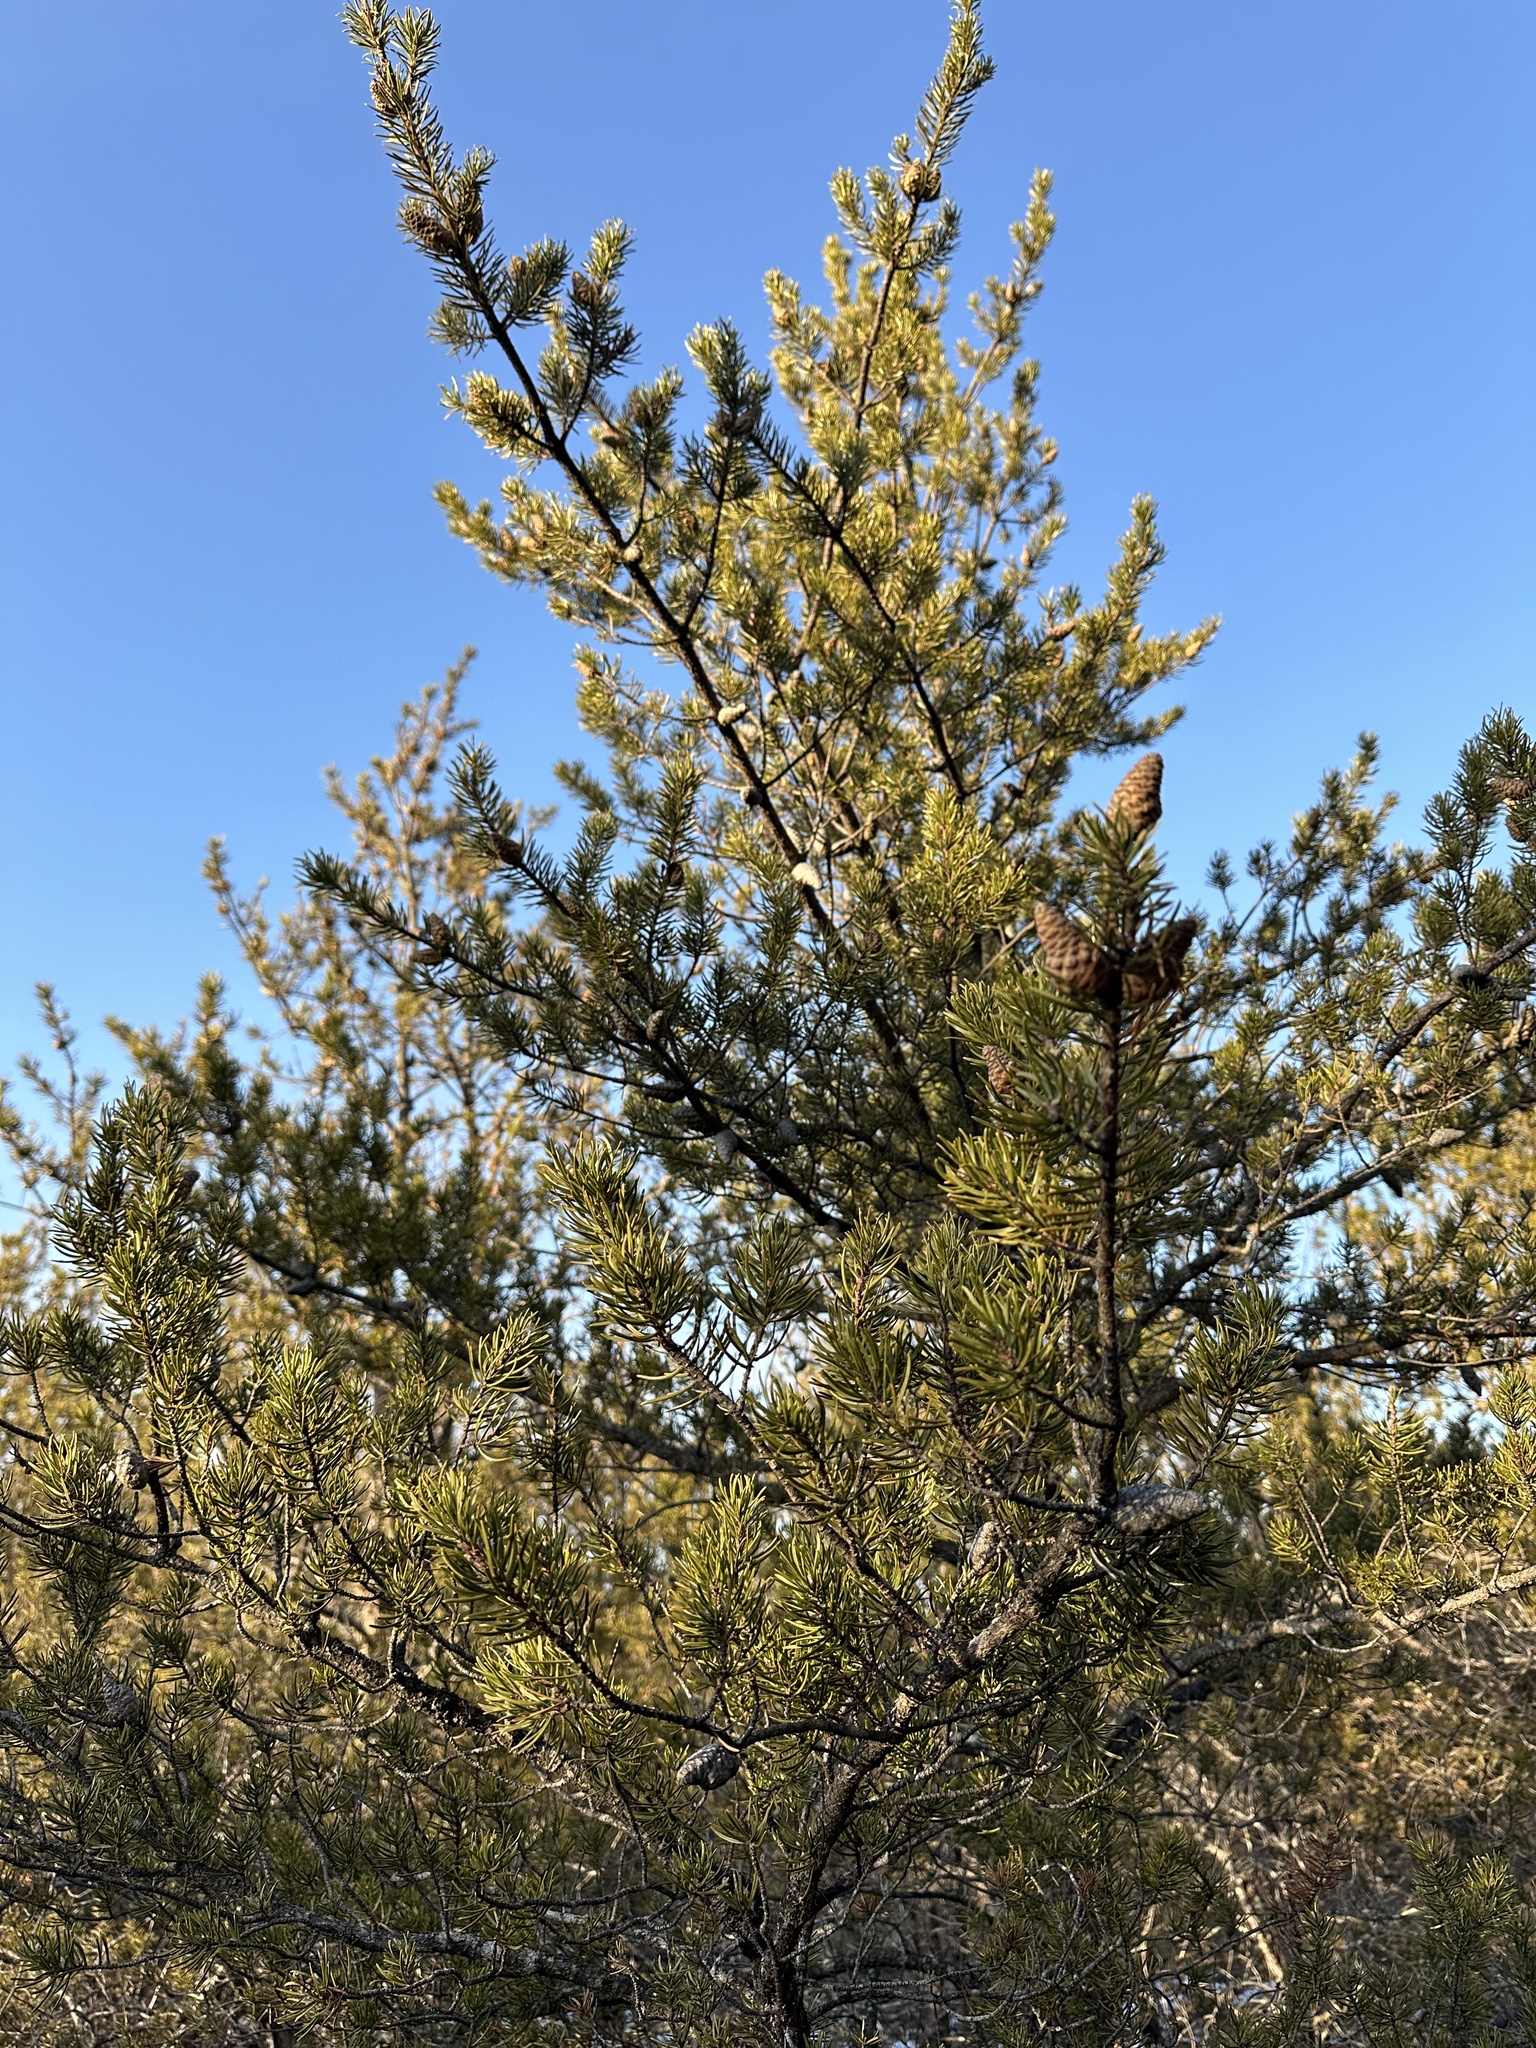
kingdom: Plantae
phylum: Tracheophyta
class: Pinopsida
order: Pinales
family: Pinaceae
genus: Pinus
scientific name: Pinus banksiana
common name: Jack pine
